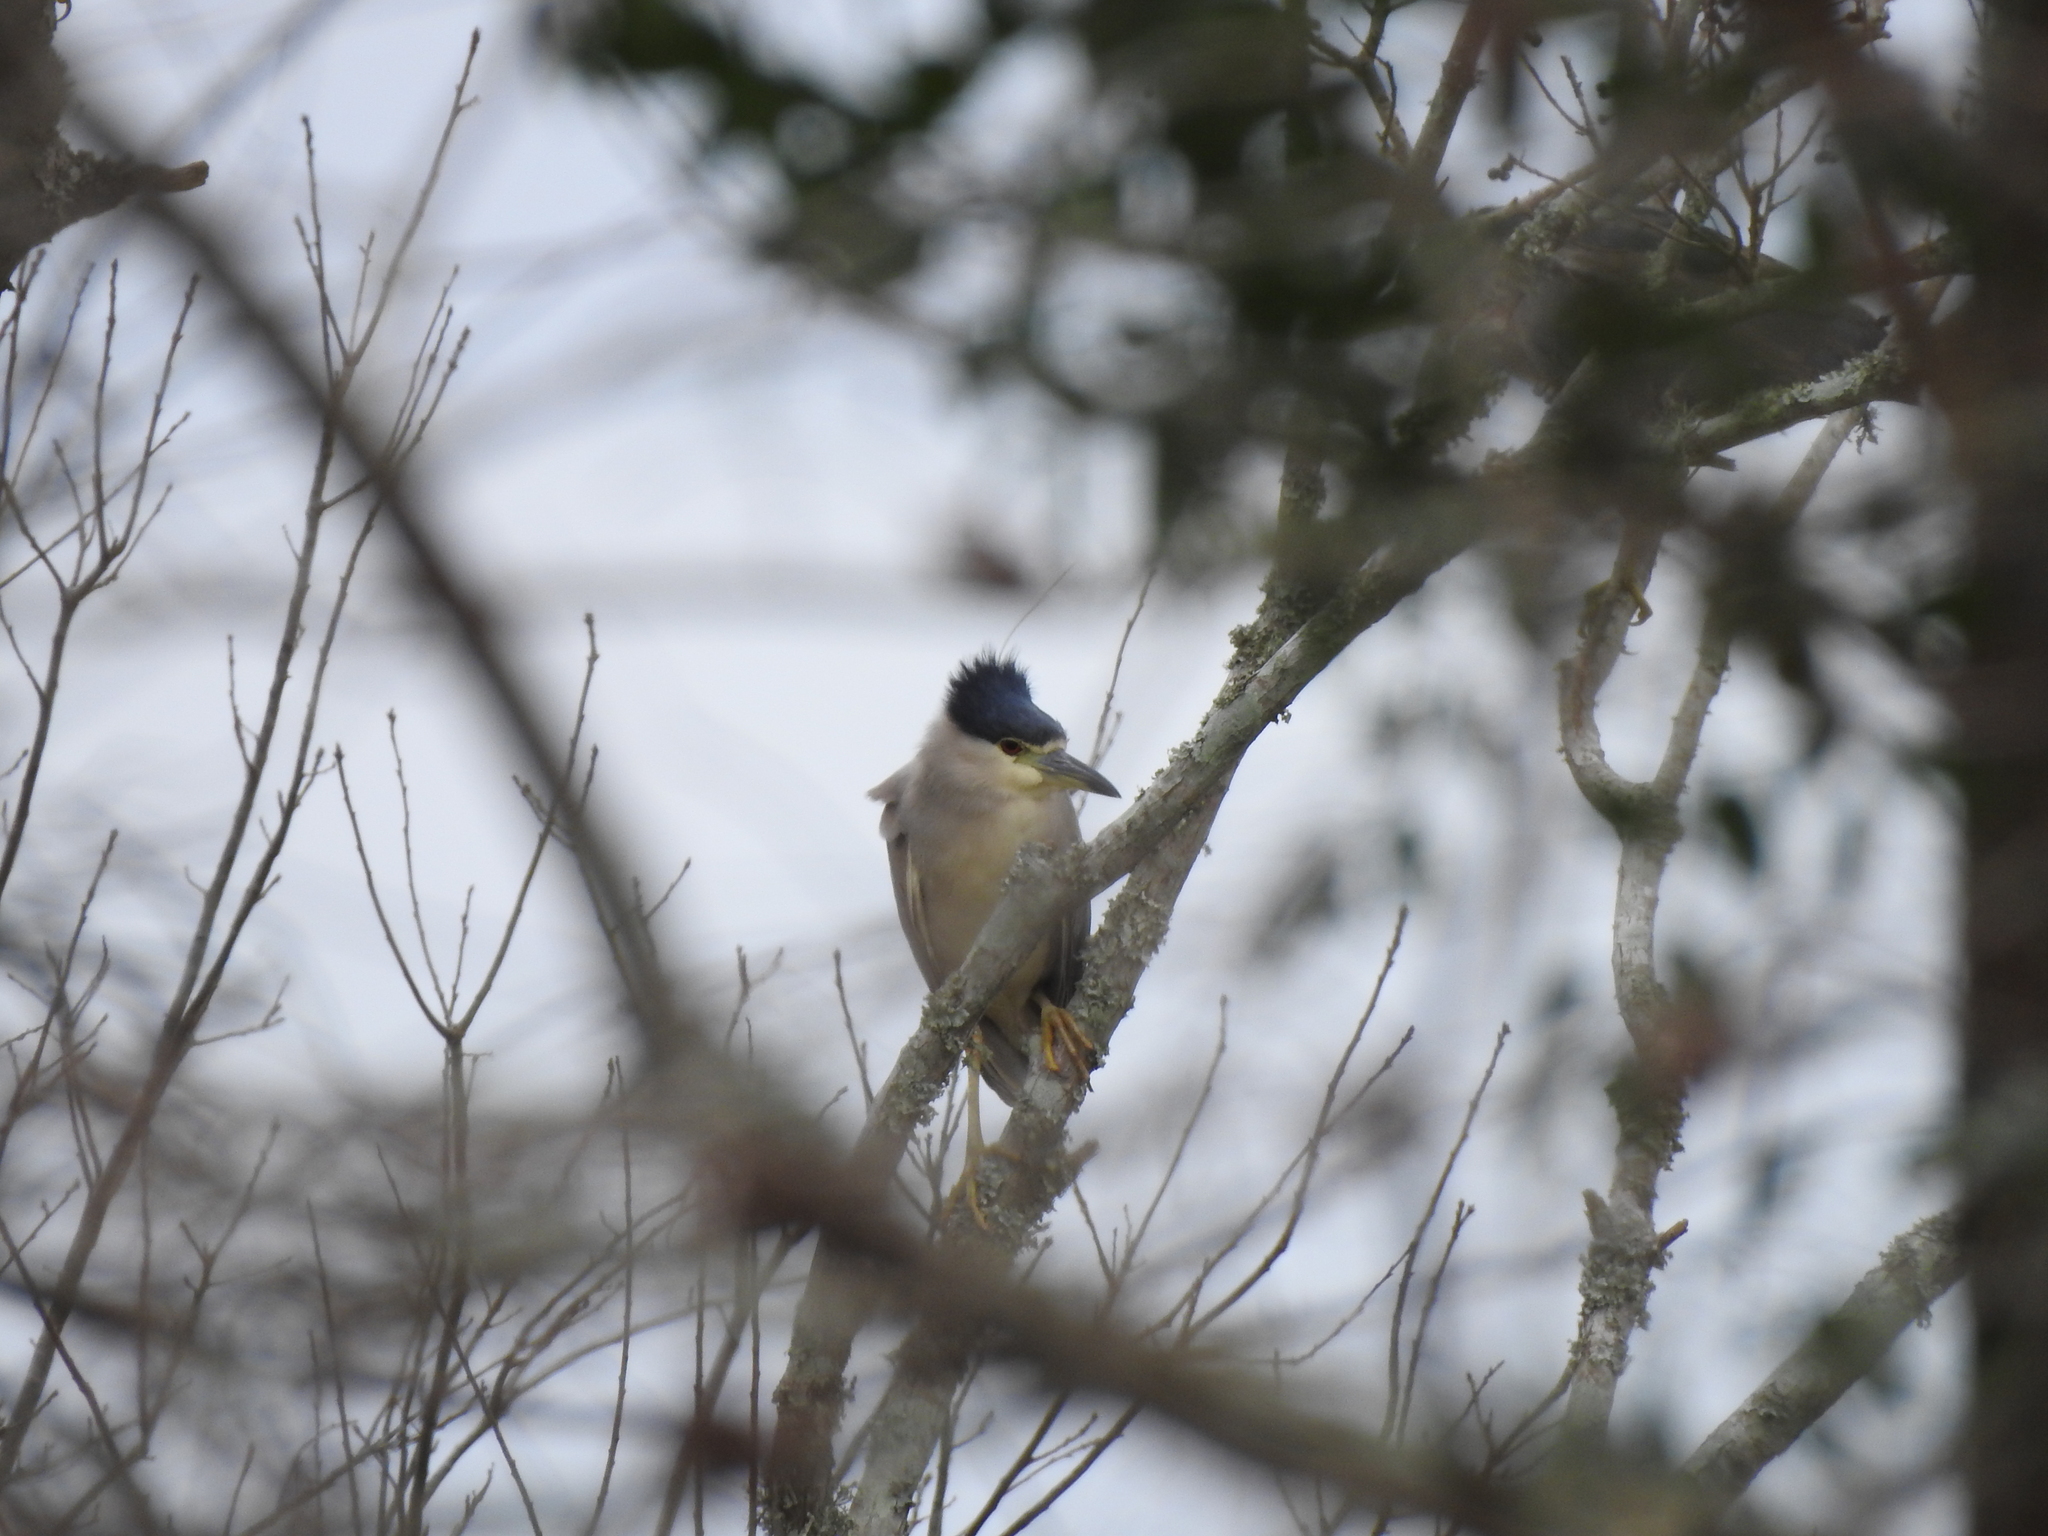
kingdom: Animalia
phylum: Chordata
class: Aves
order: Pelecaniformes
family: Ardeidae
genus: Nycticorax
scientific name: Nycticorax nycticorax
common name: Black-crowned night heron
